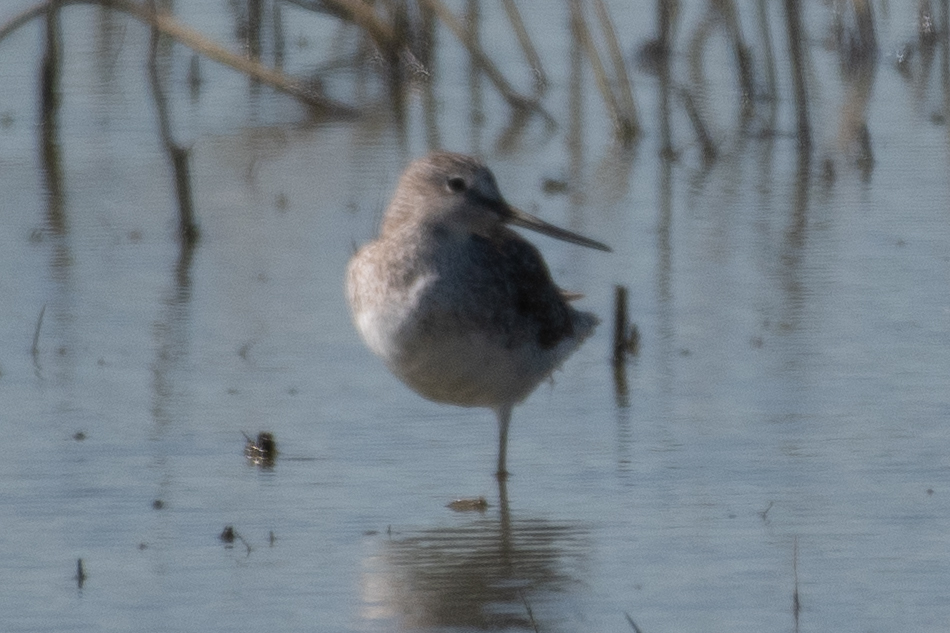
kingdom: Animalia
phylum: Chordata
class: Aves
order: Charadriiformes
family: Scolopacidae
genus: Tringa
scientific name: Tringa melanoleuca
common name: Greater yellowlegs
